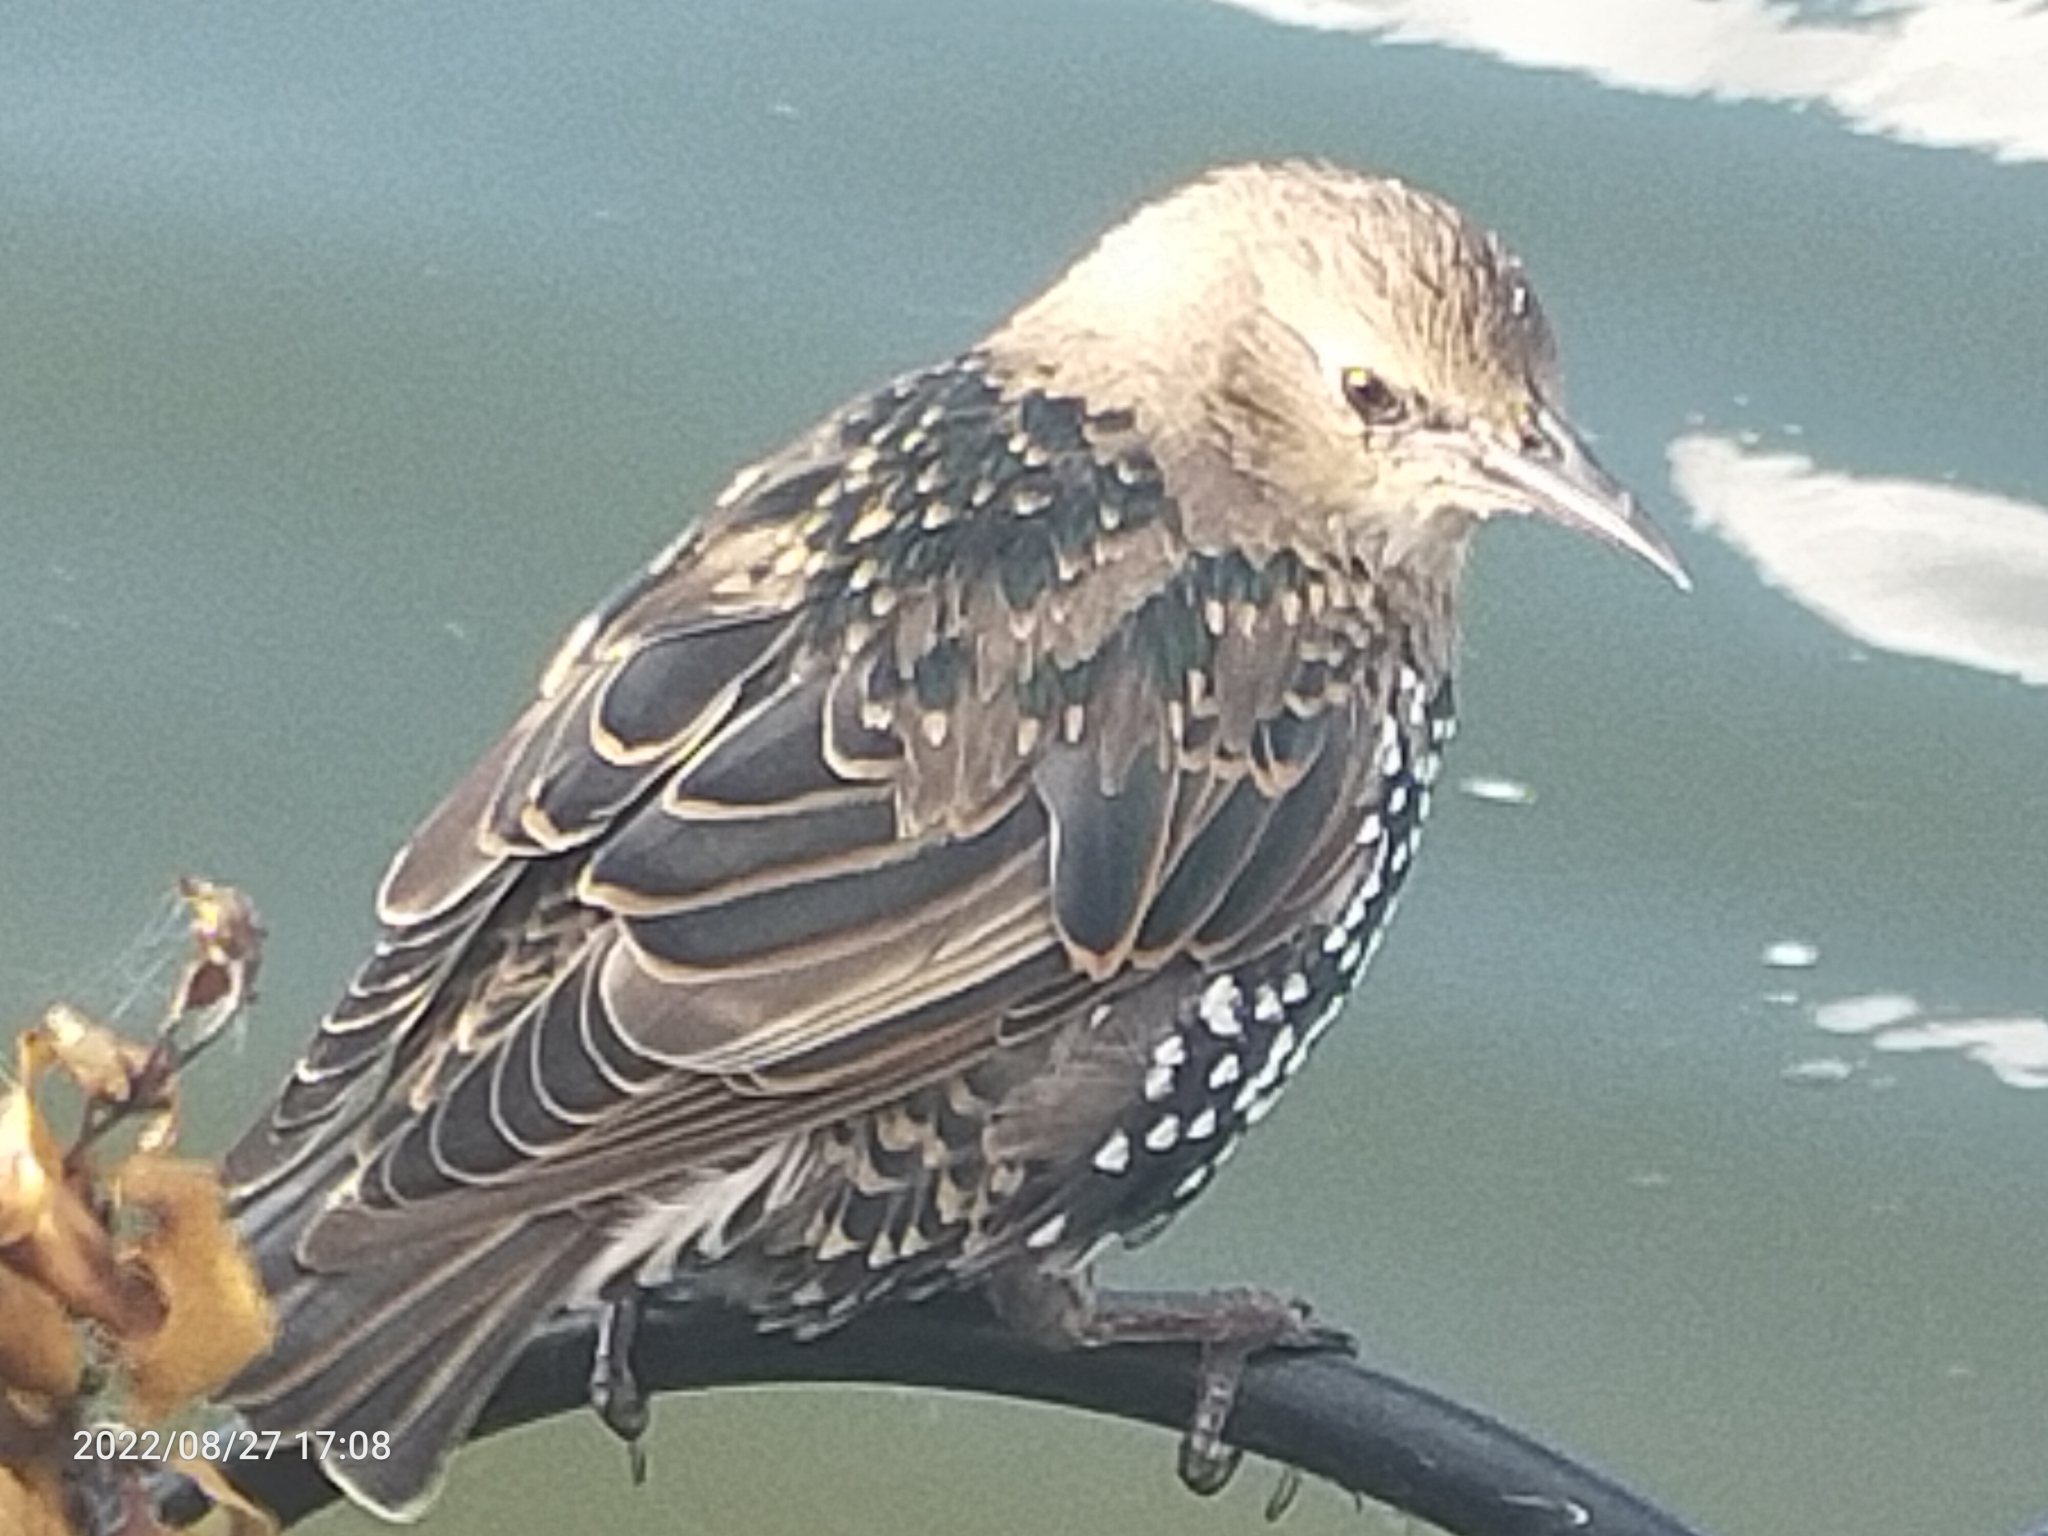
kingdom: Animalia
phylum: Chordata
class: Aves
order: Passeriformes
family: Sturnidae
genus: Sturnus
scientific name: Sturnus vulgaris
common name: Common starling
